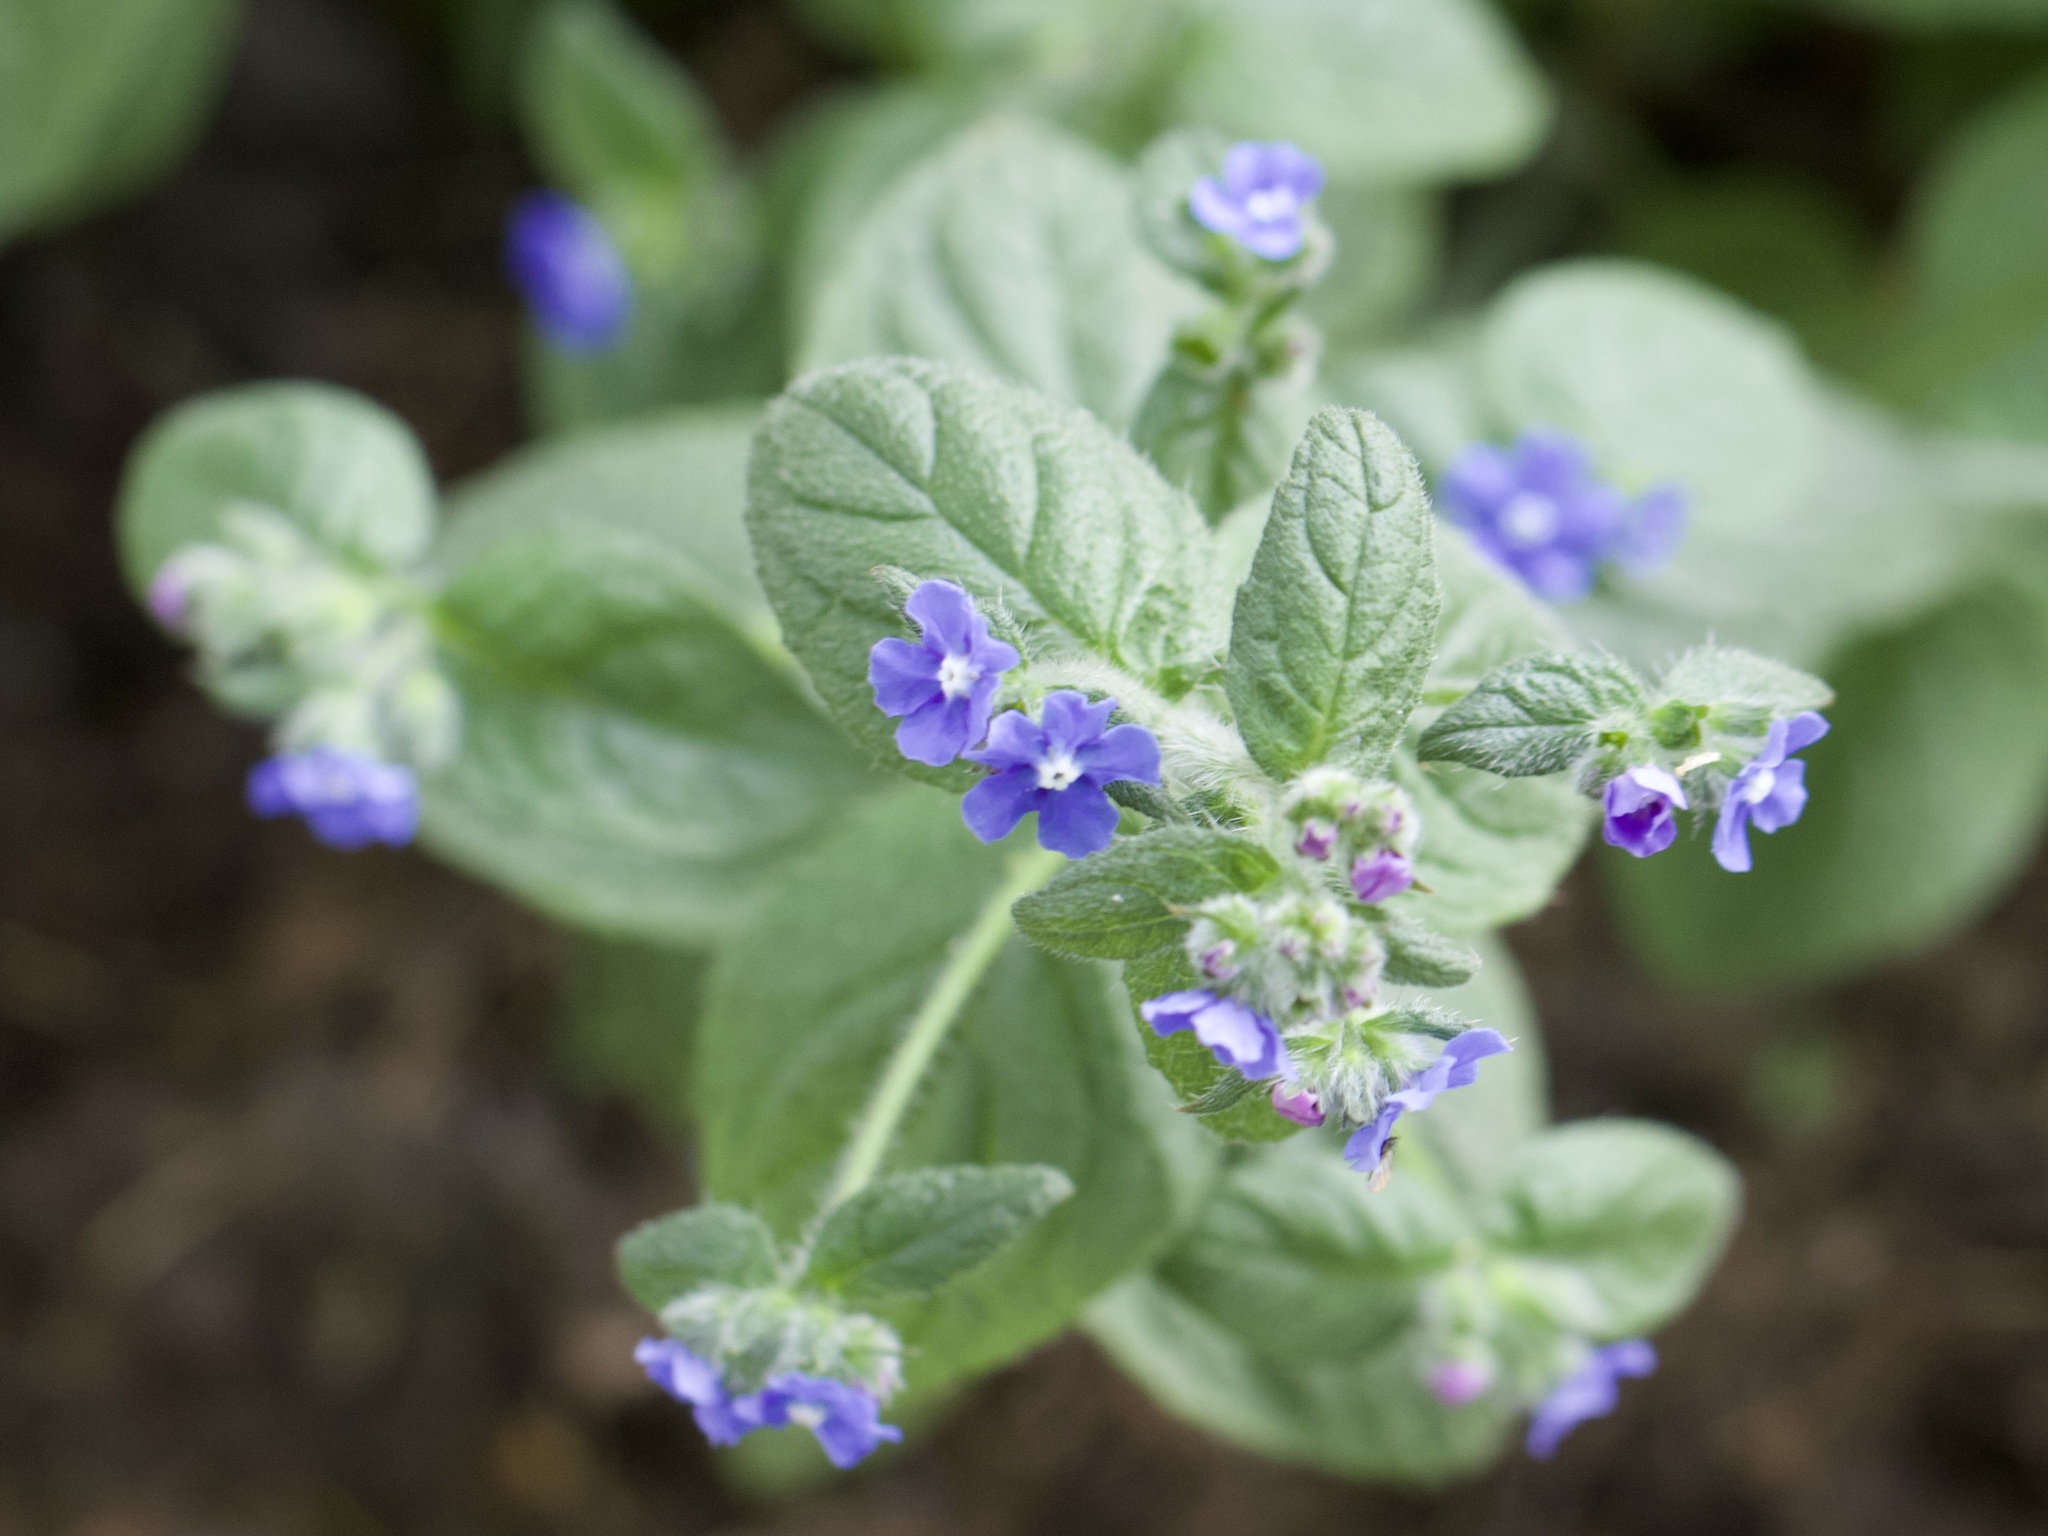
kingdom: Plantae
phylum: Tracheophyta
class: Magnoliopsida
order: Boraginales
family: Boraginaceae
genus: Pentaglottis
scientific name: Pentaglottis sempervirens
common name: Green alkanet
